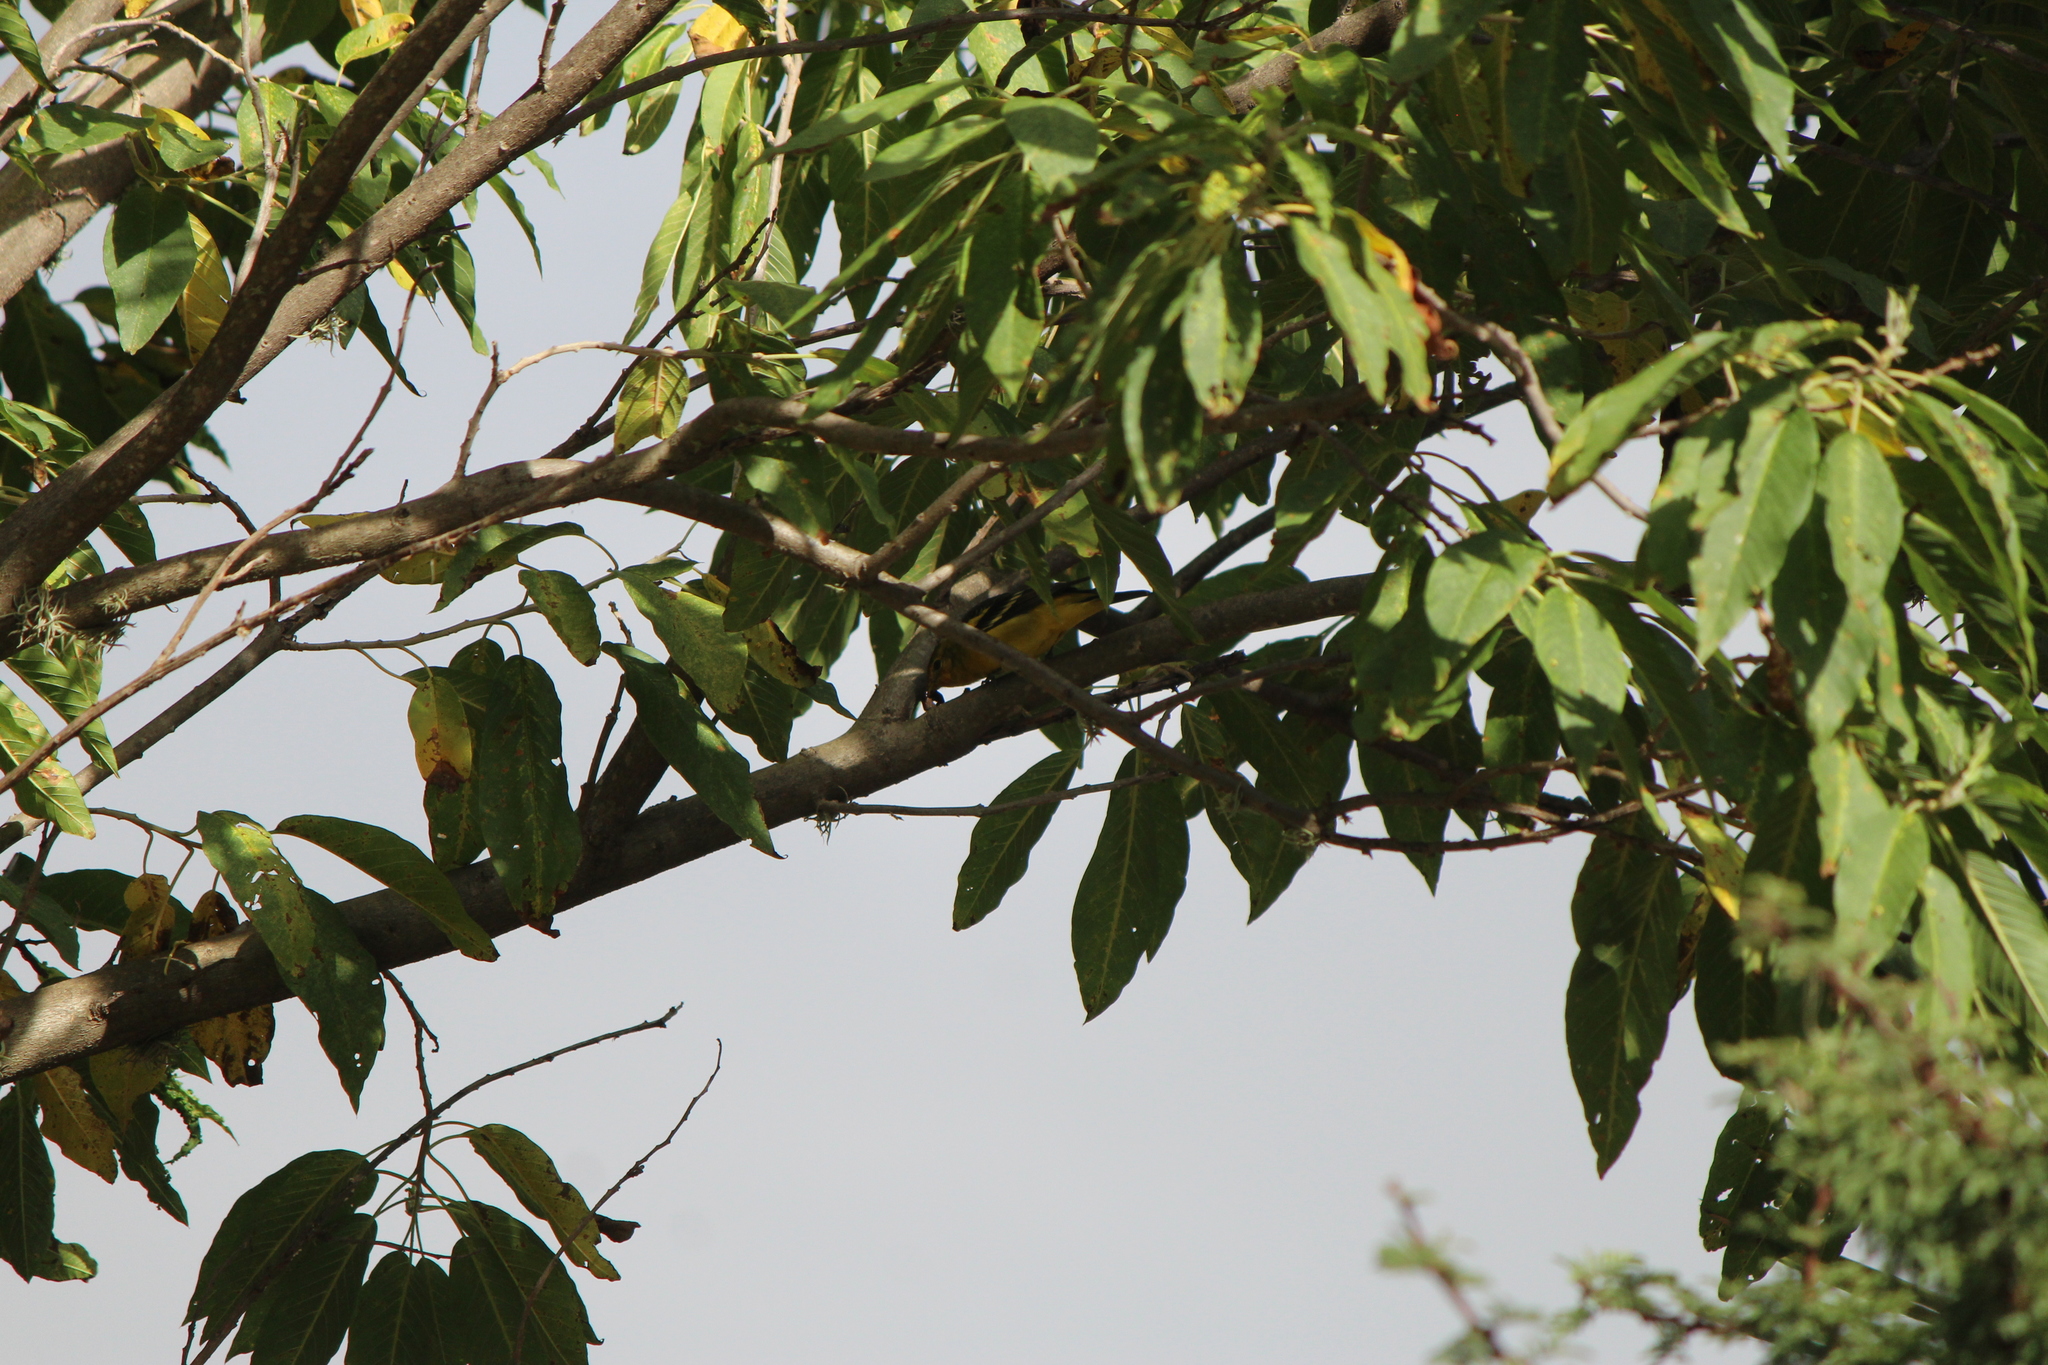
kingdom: Animalia
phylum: Chordata
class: Aves
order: Passeriformes
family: Cardinalidae
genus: Piranga
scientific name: Piranga ludoviciana
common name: Western tanager
